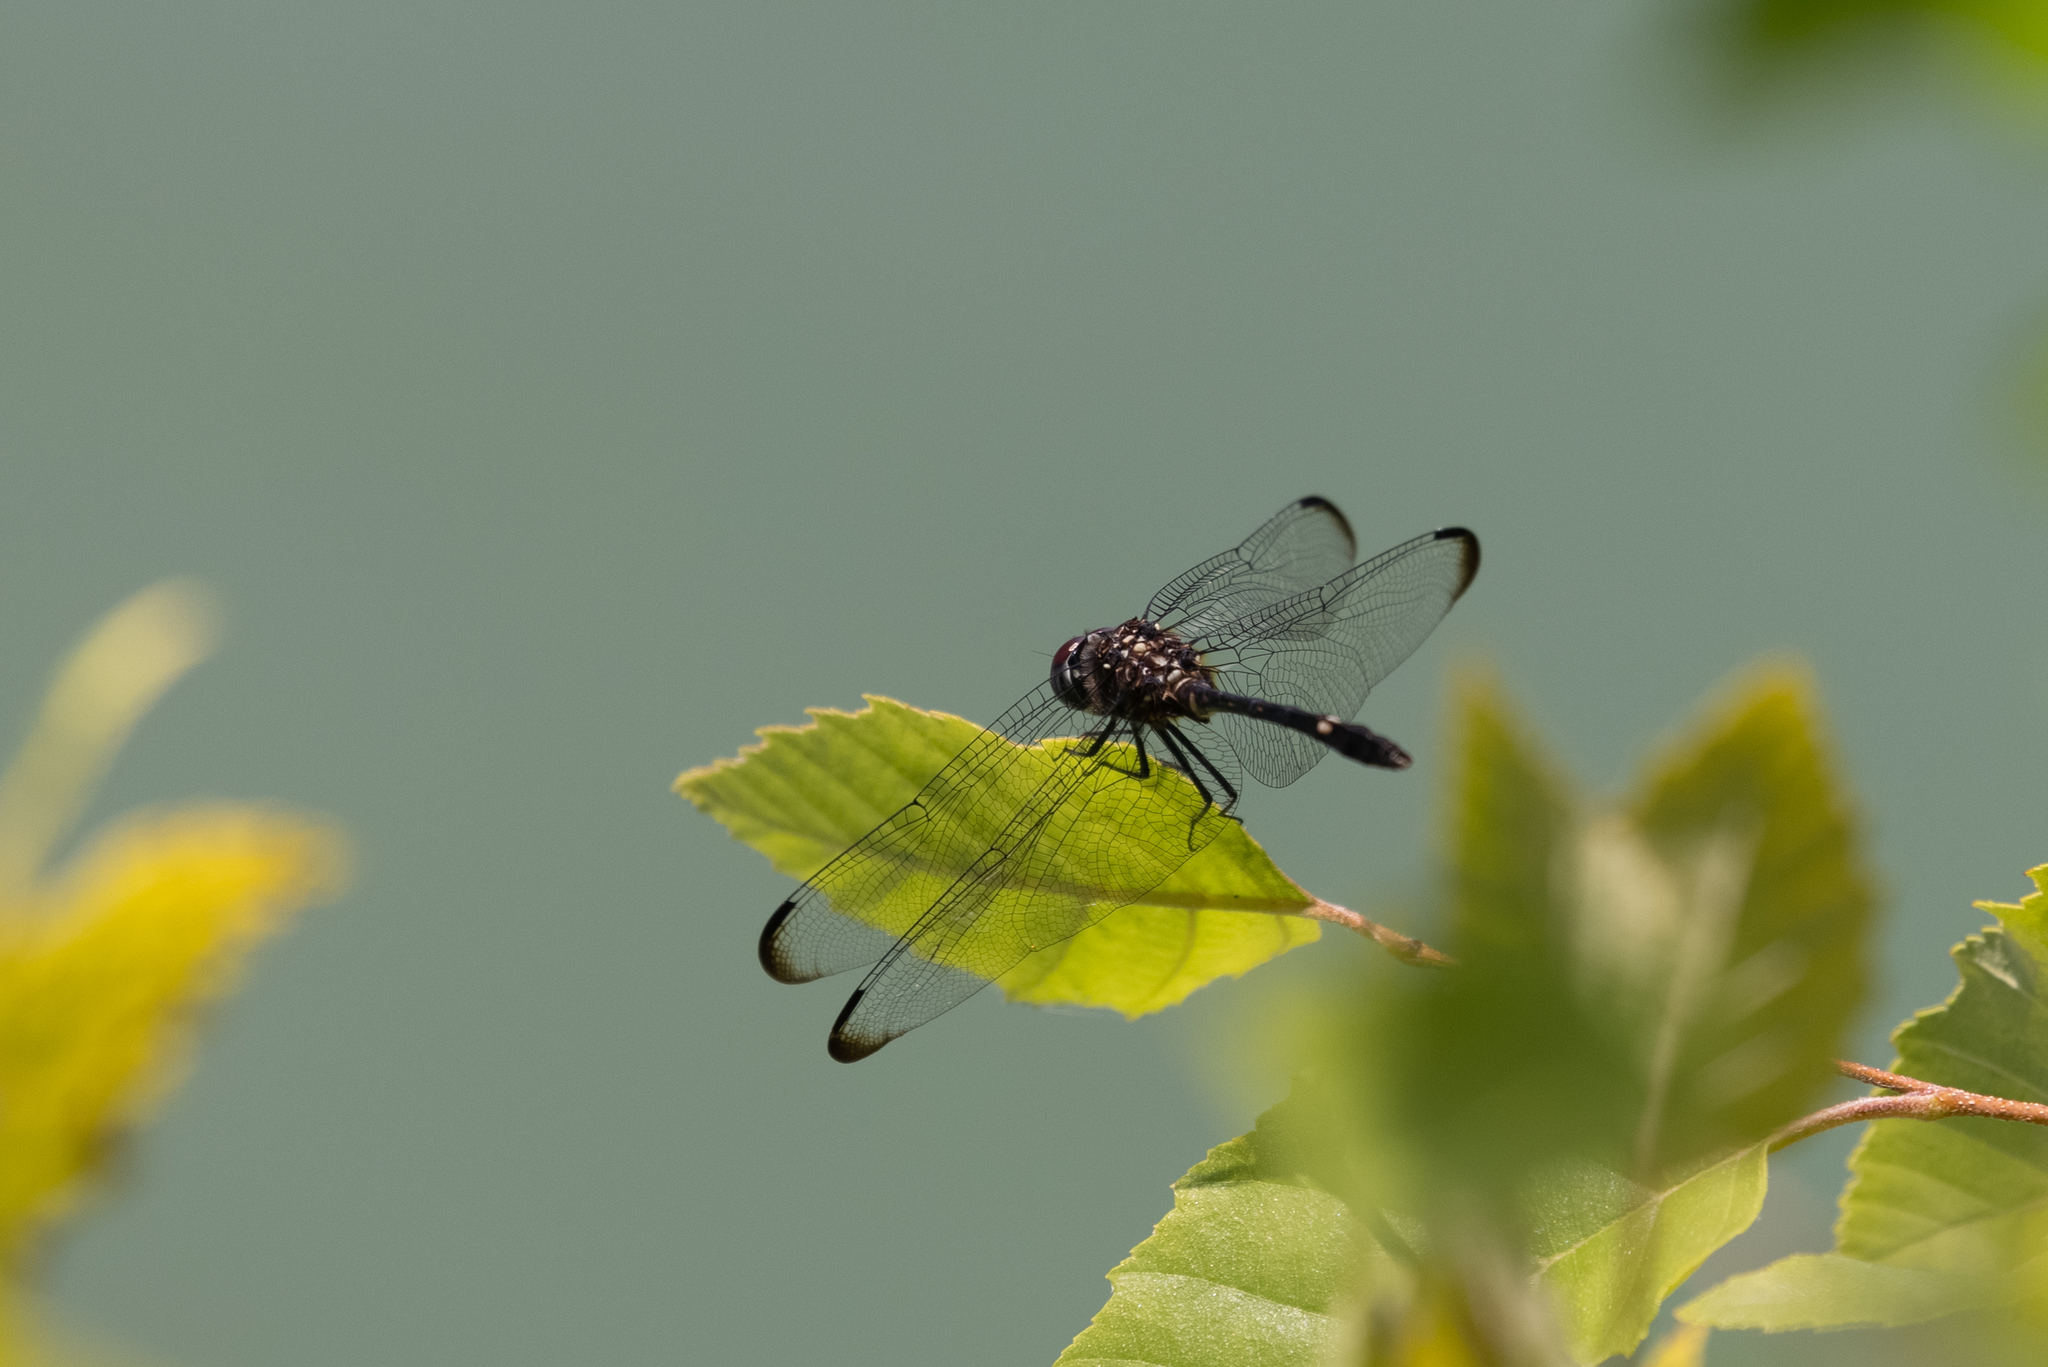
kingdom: Animalia
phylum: Arthropoda
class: Insecta
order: Odonata
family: Libellulidae
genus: Dythemis
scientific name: Dythemis velox
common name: Swift setwing
